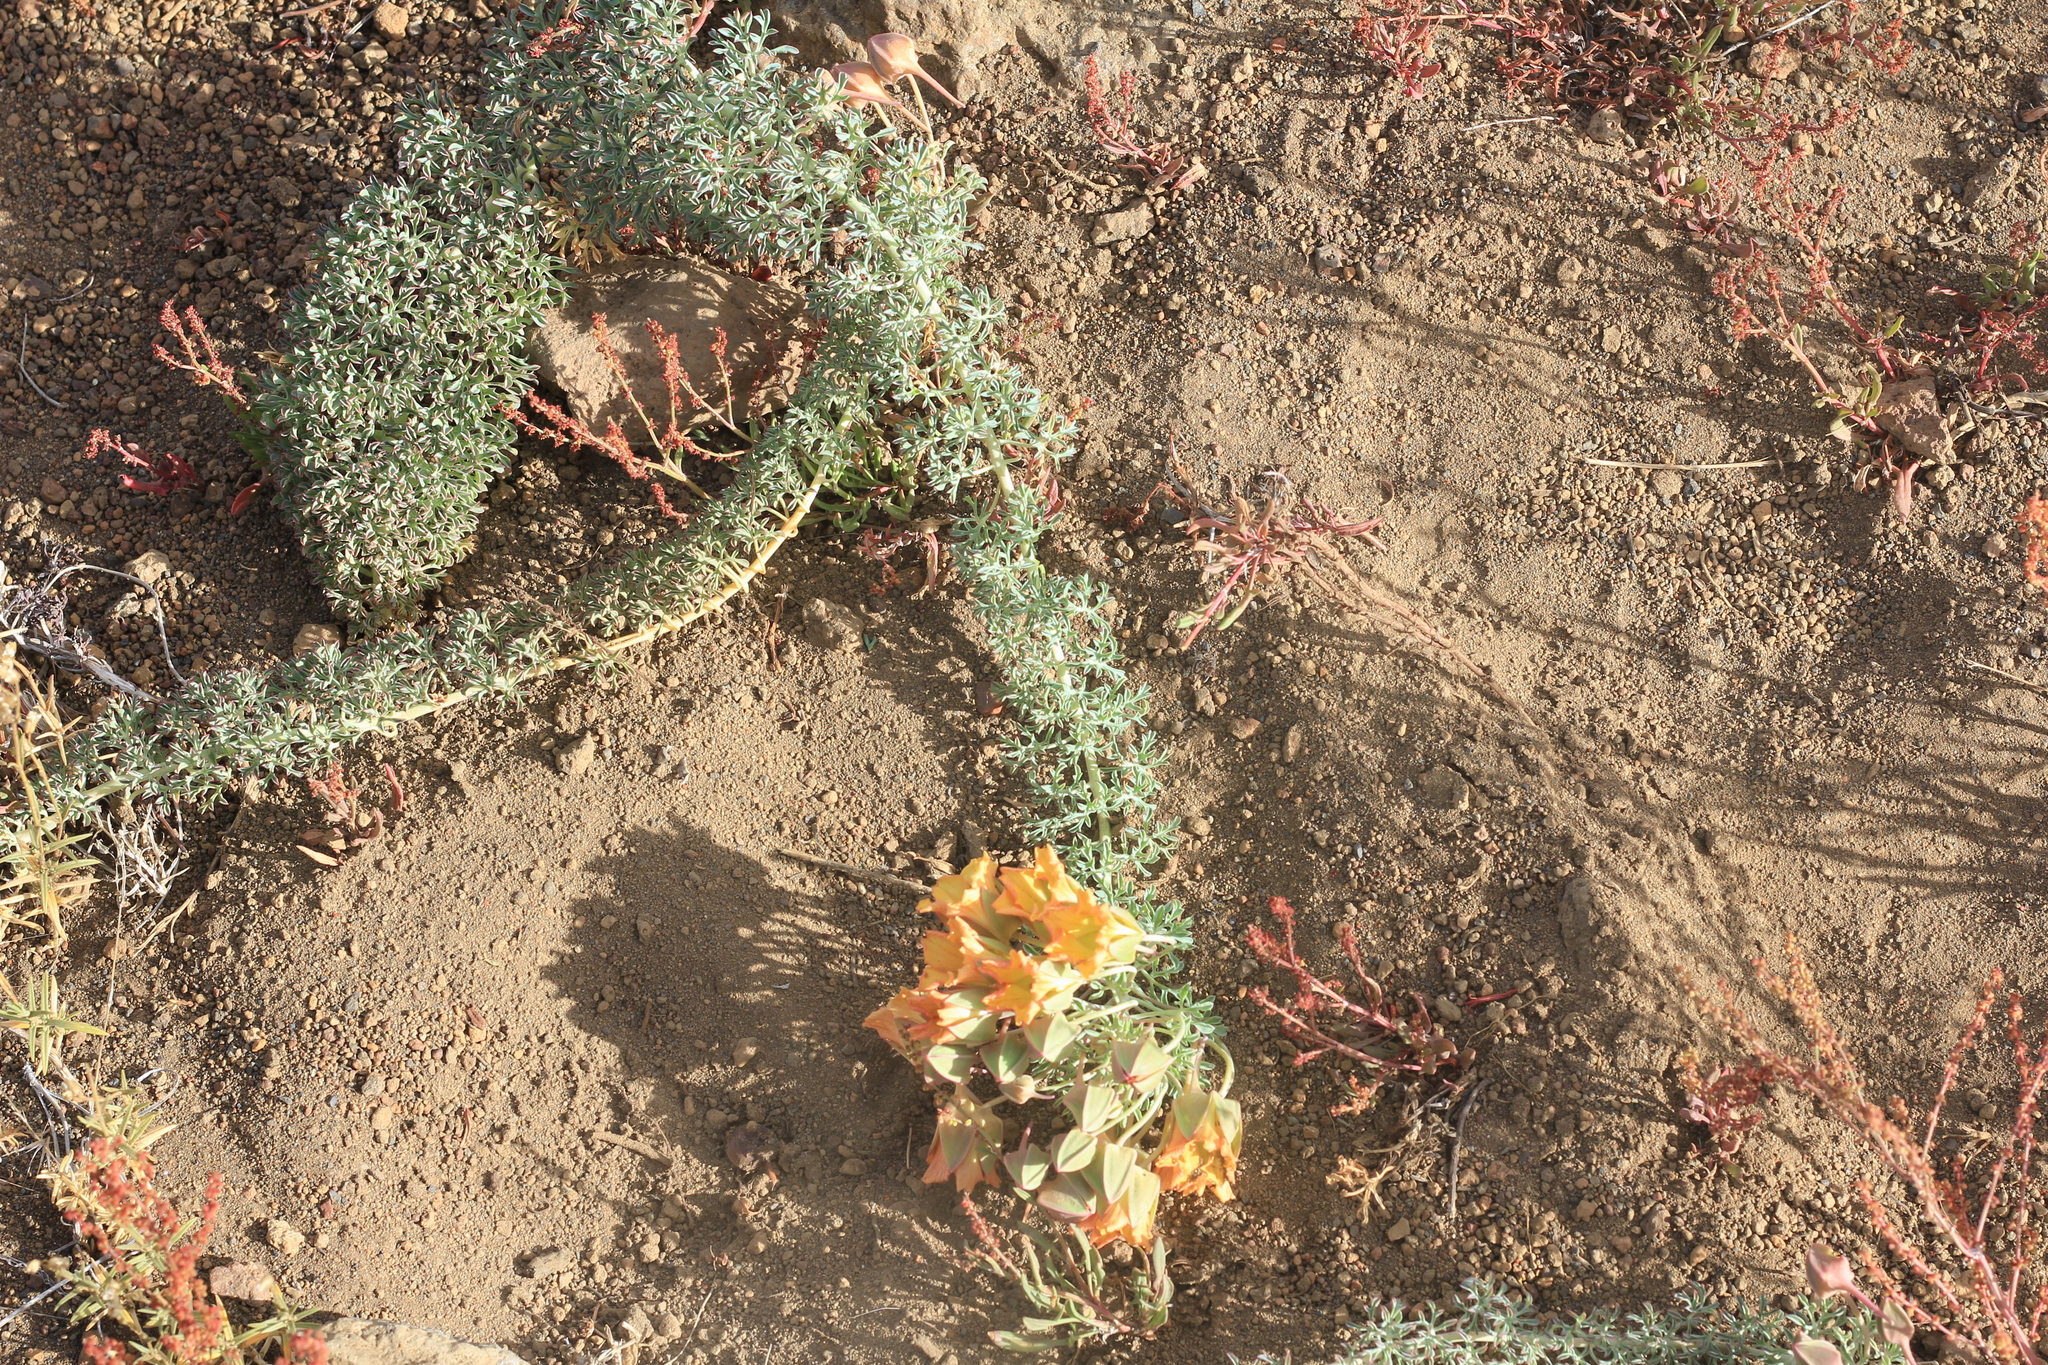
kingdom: Plantae
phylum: Tracheophyta
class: Magnoliopsida
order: Brassicales
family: Tropaeolaceae
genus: Tropaeolum
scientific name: Tropaeolum incisum
